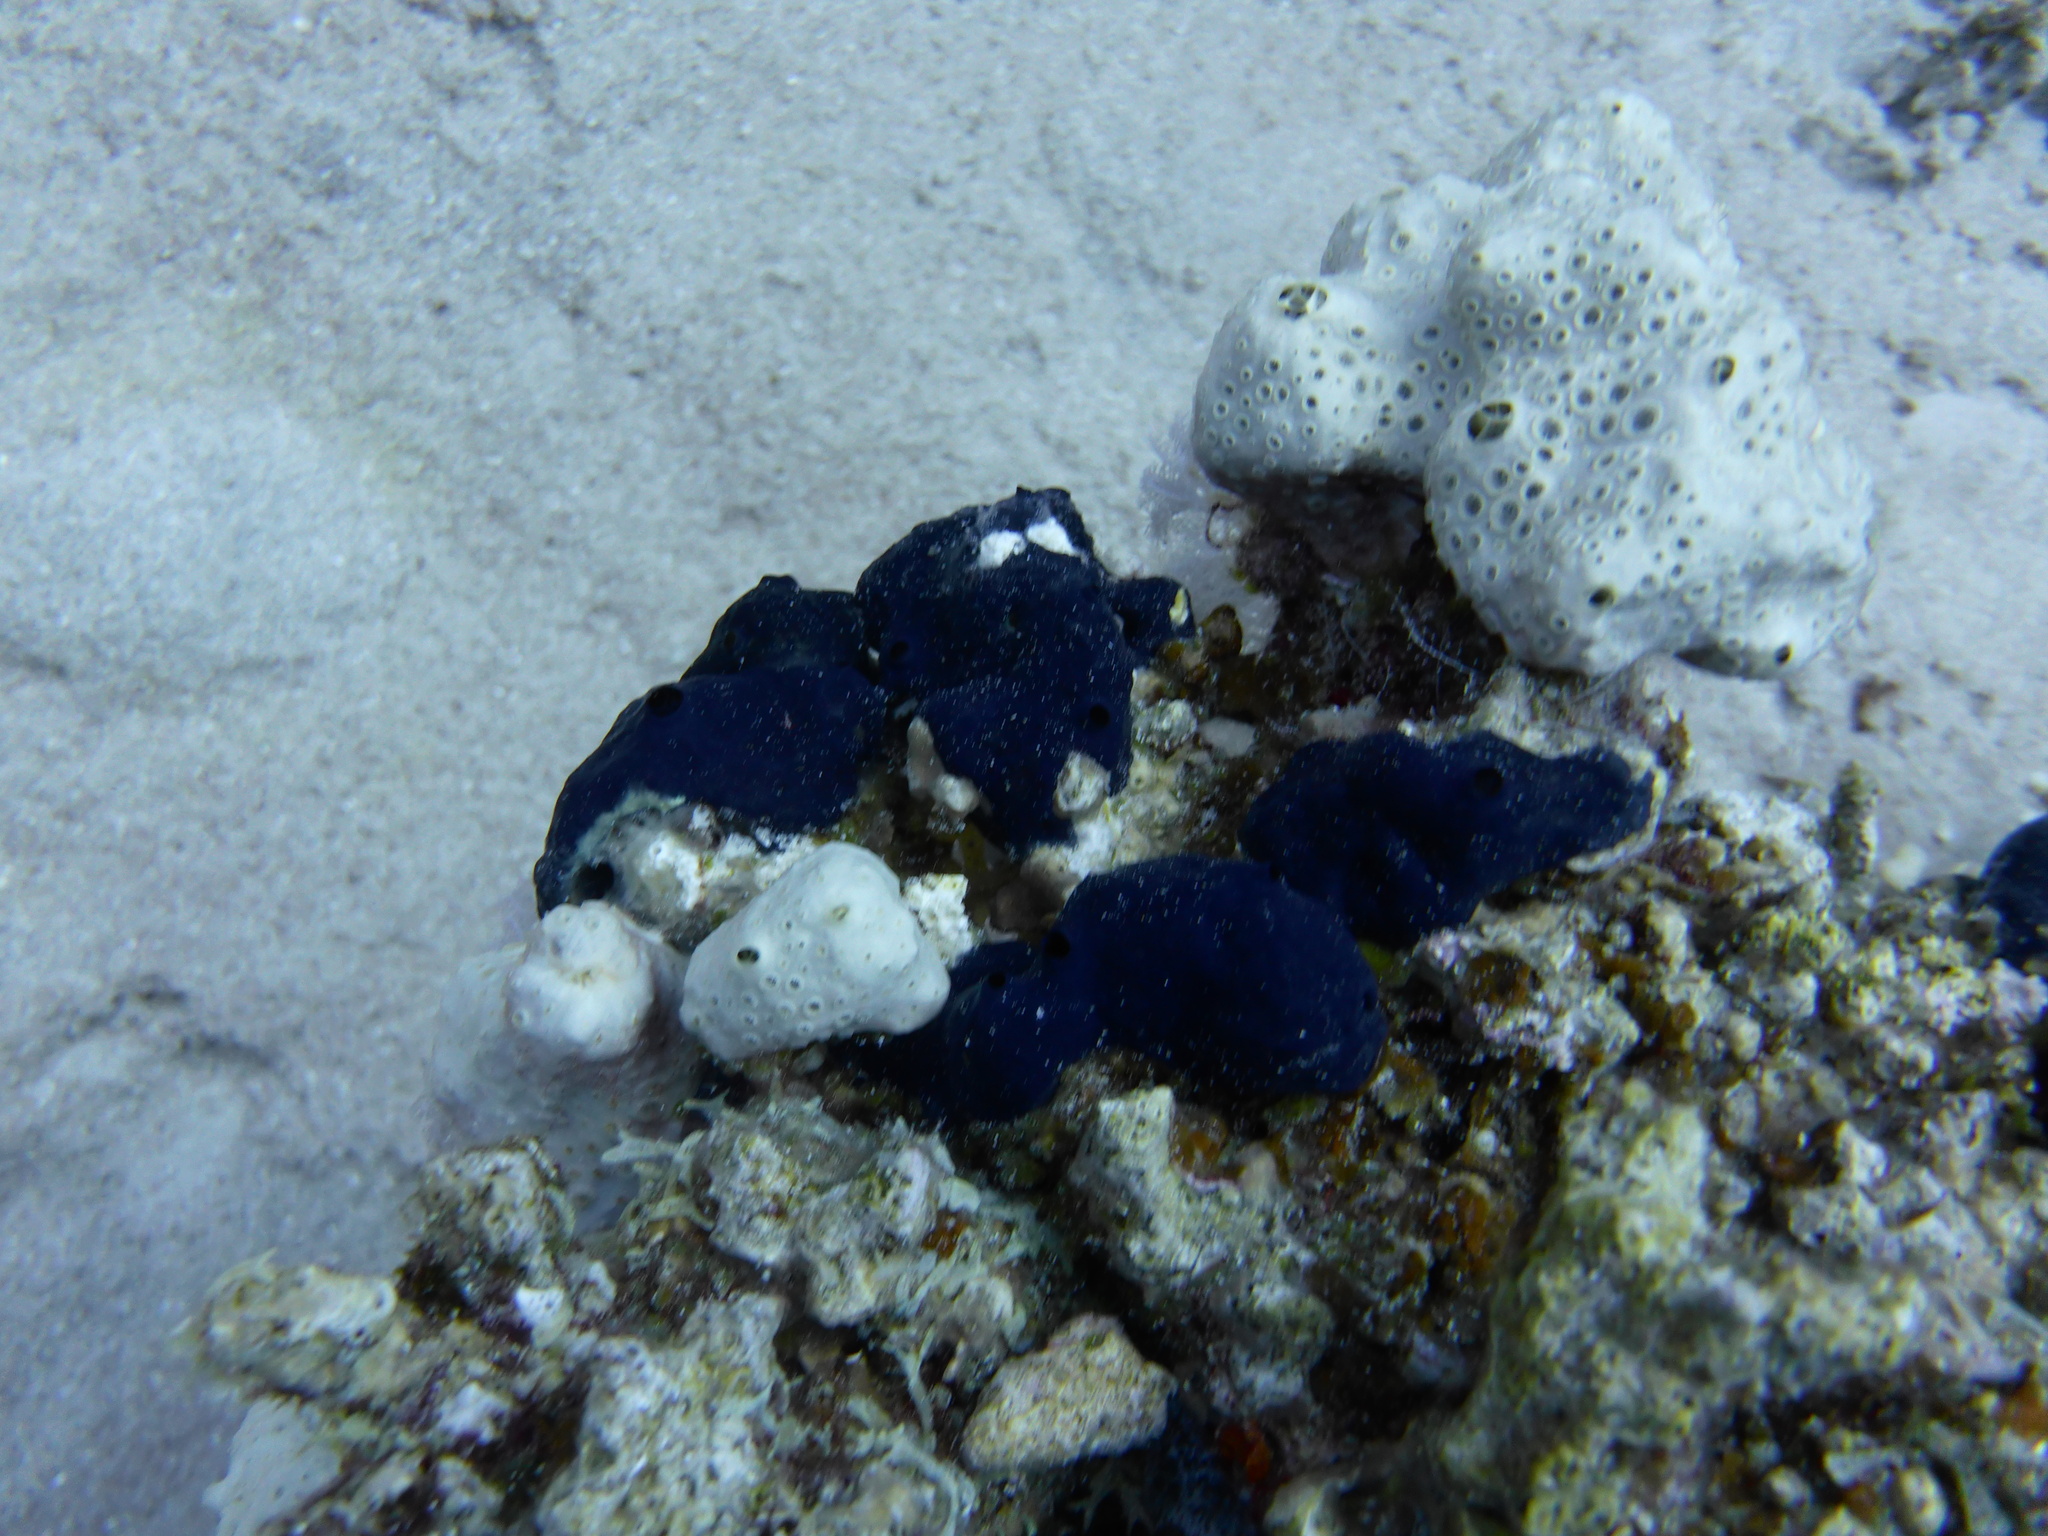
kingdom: Animalia
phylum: Porifera
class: Demospongiae
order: Poecilosclerida
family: Hymedesmiidae
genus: Hemimycale
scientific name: Hemimycale arabica
